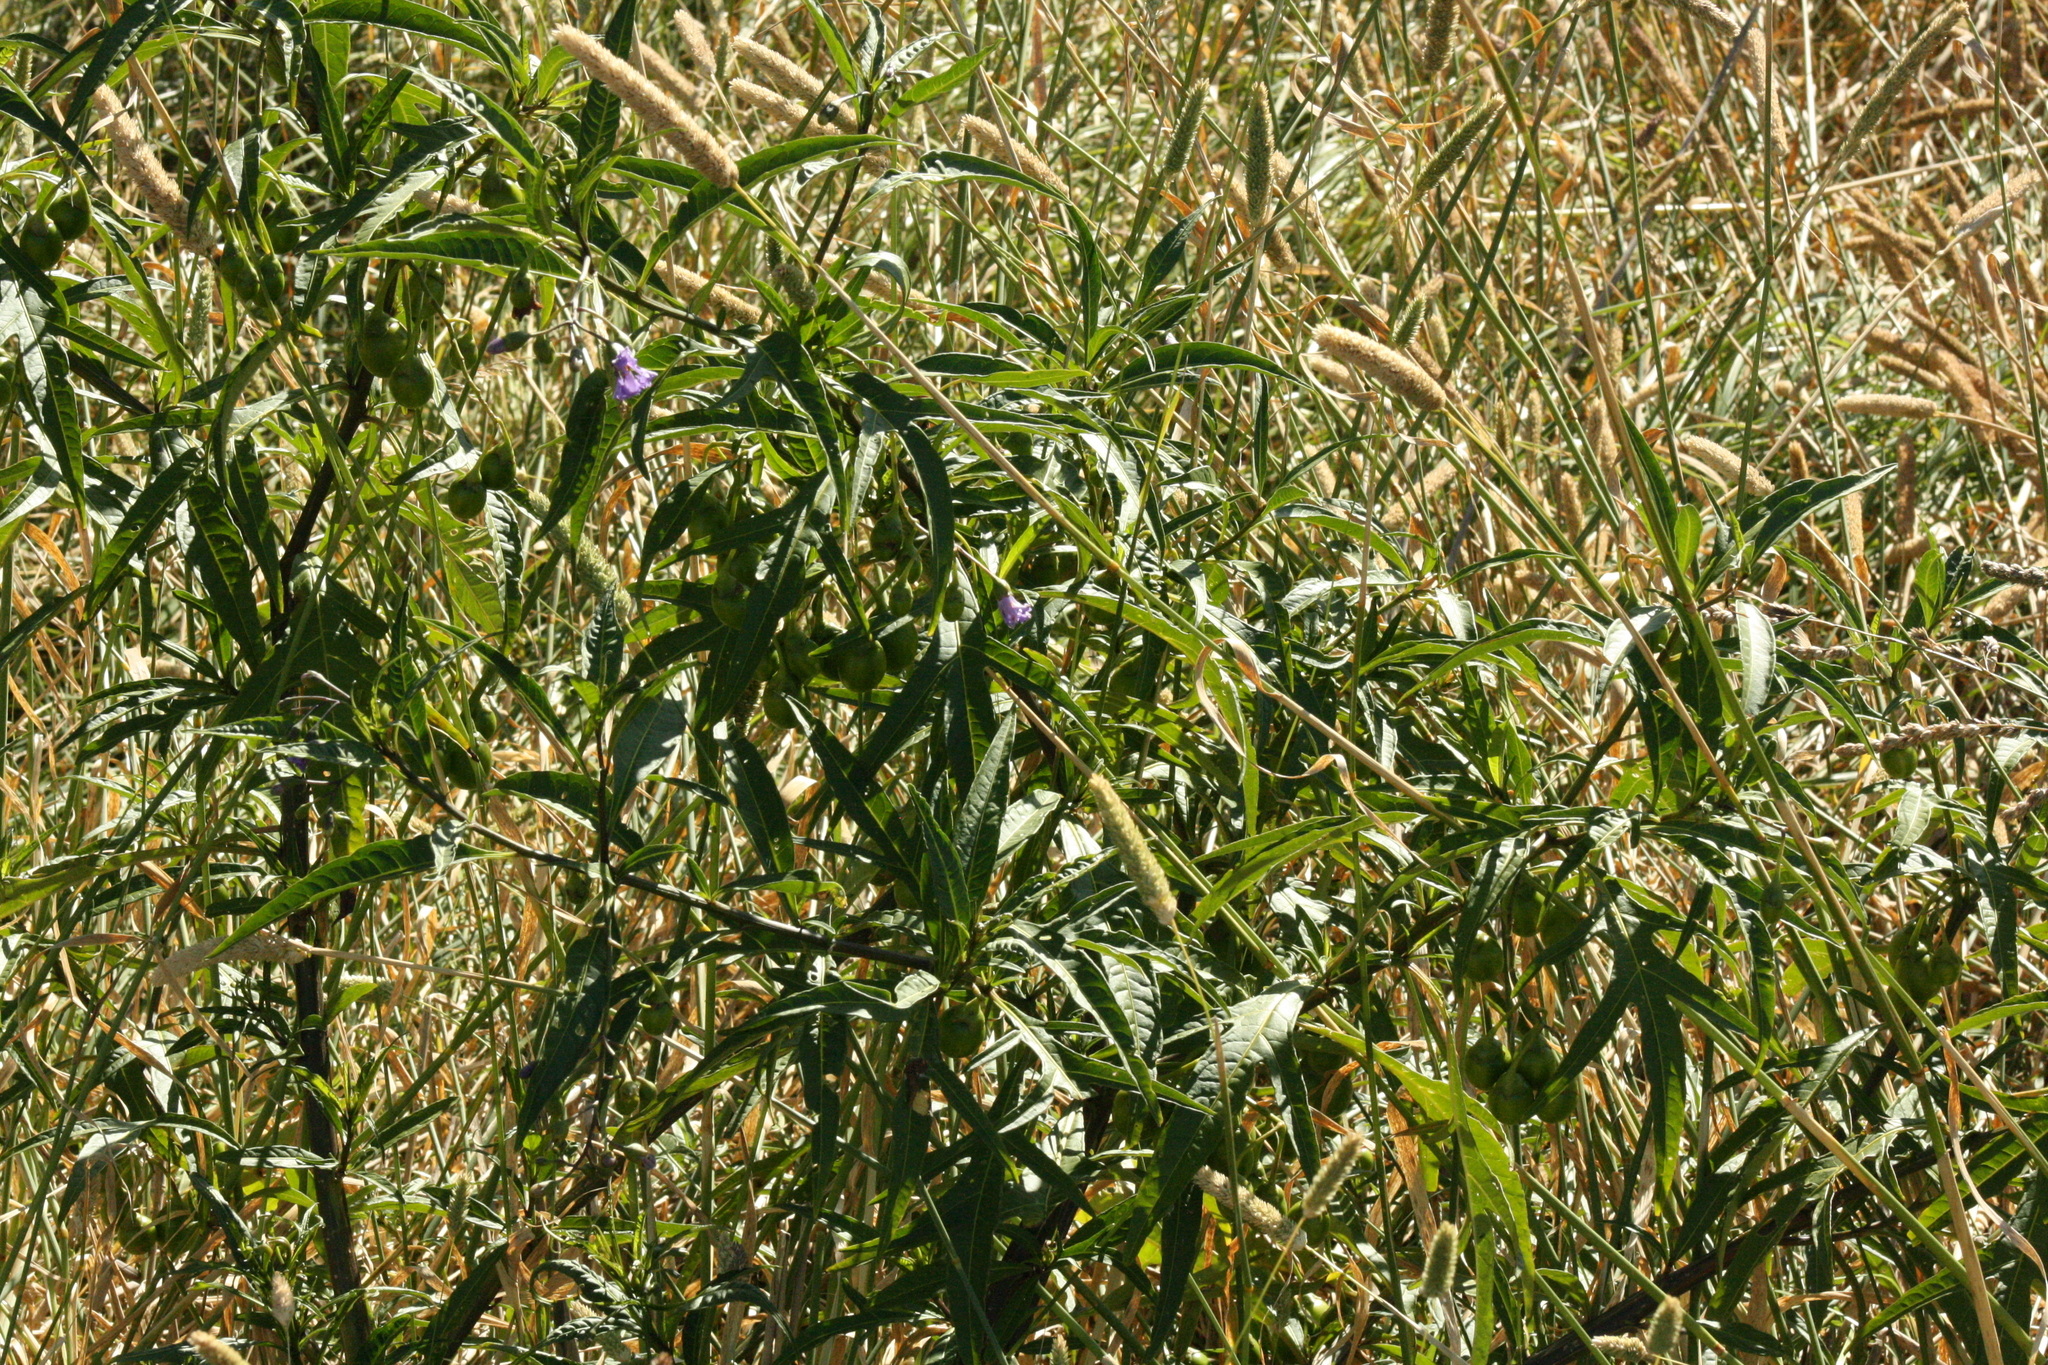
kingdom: Plantae
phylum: Tracheophyta
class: Magnoliopsida
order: Solanales
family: Solanaceae
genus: Solanum
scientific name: Solanum laciniatum
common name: Kangaroo-apple
